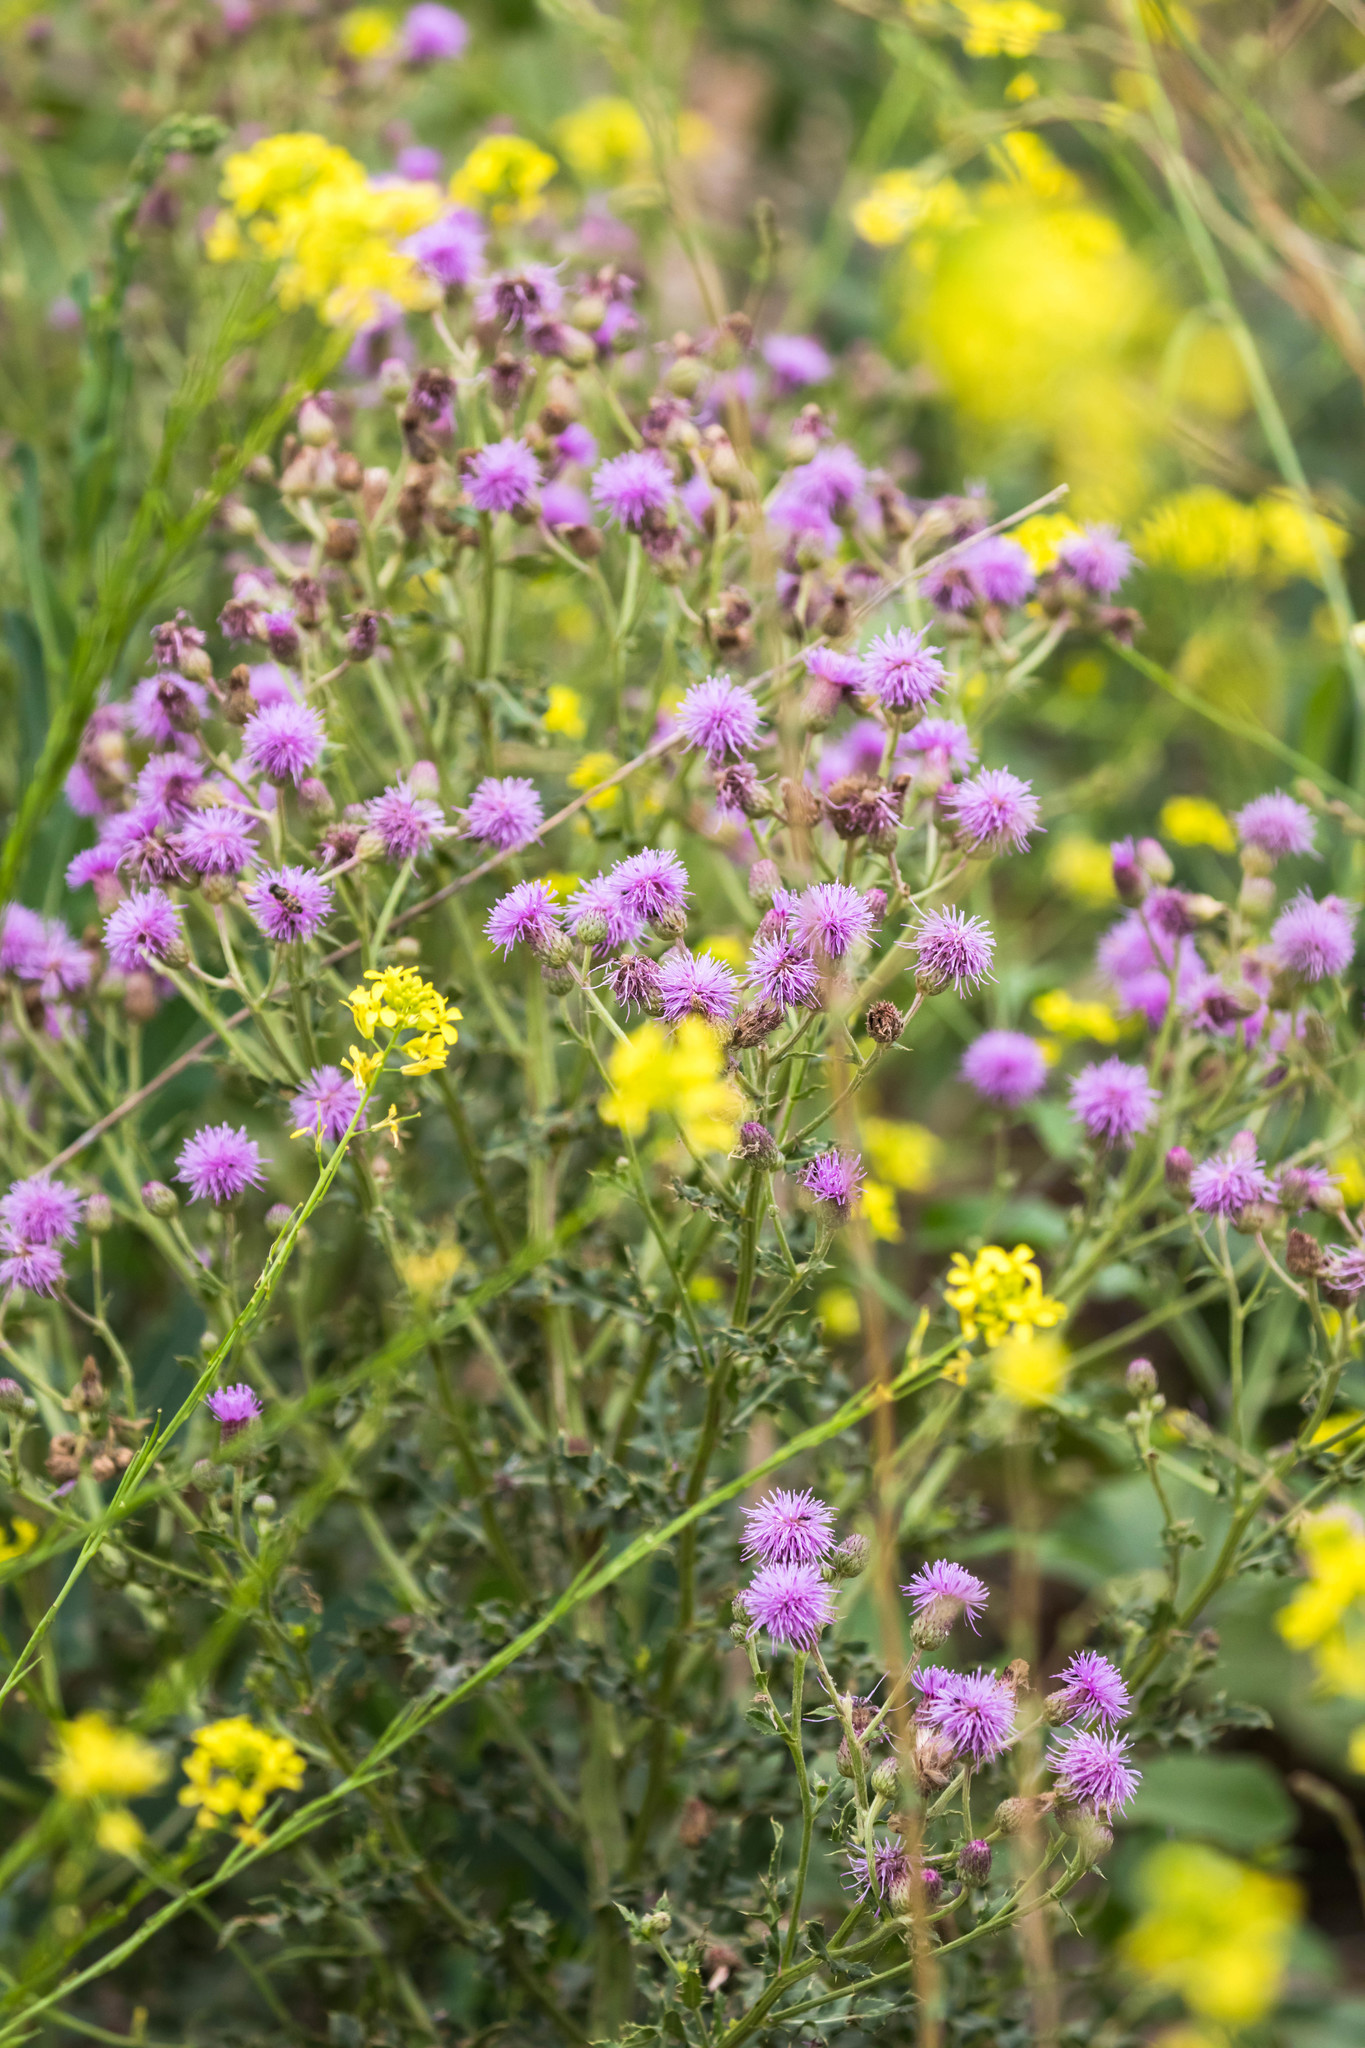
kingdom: Plantae
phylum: Tracheophyta
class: Magnoliopsida
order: Asterales
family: Asteraceae
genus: Cirsium
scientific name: Cirsium arvense
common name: Creeping thistle
